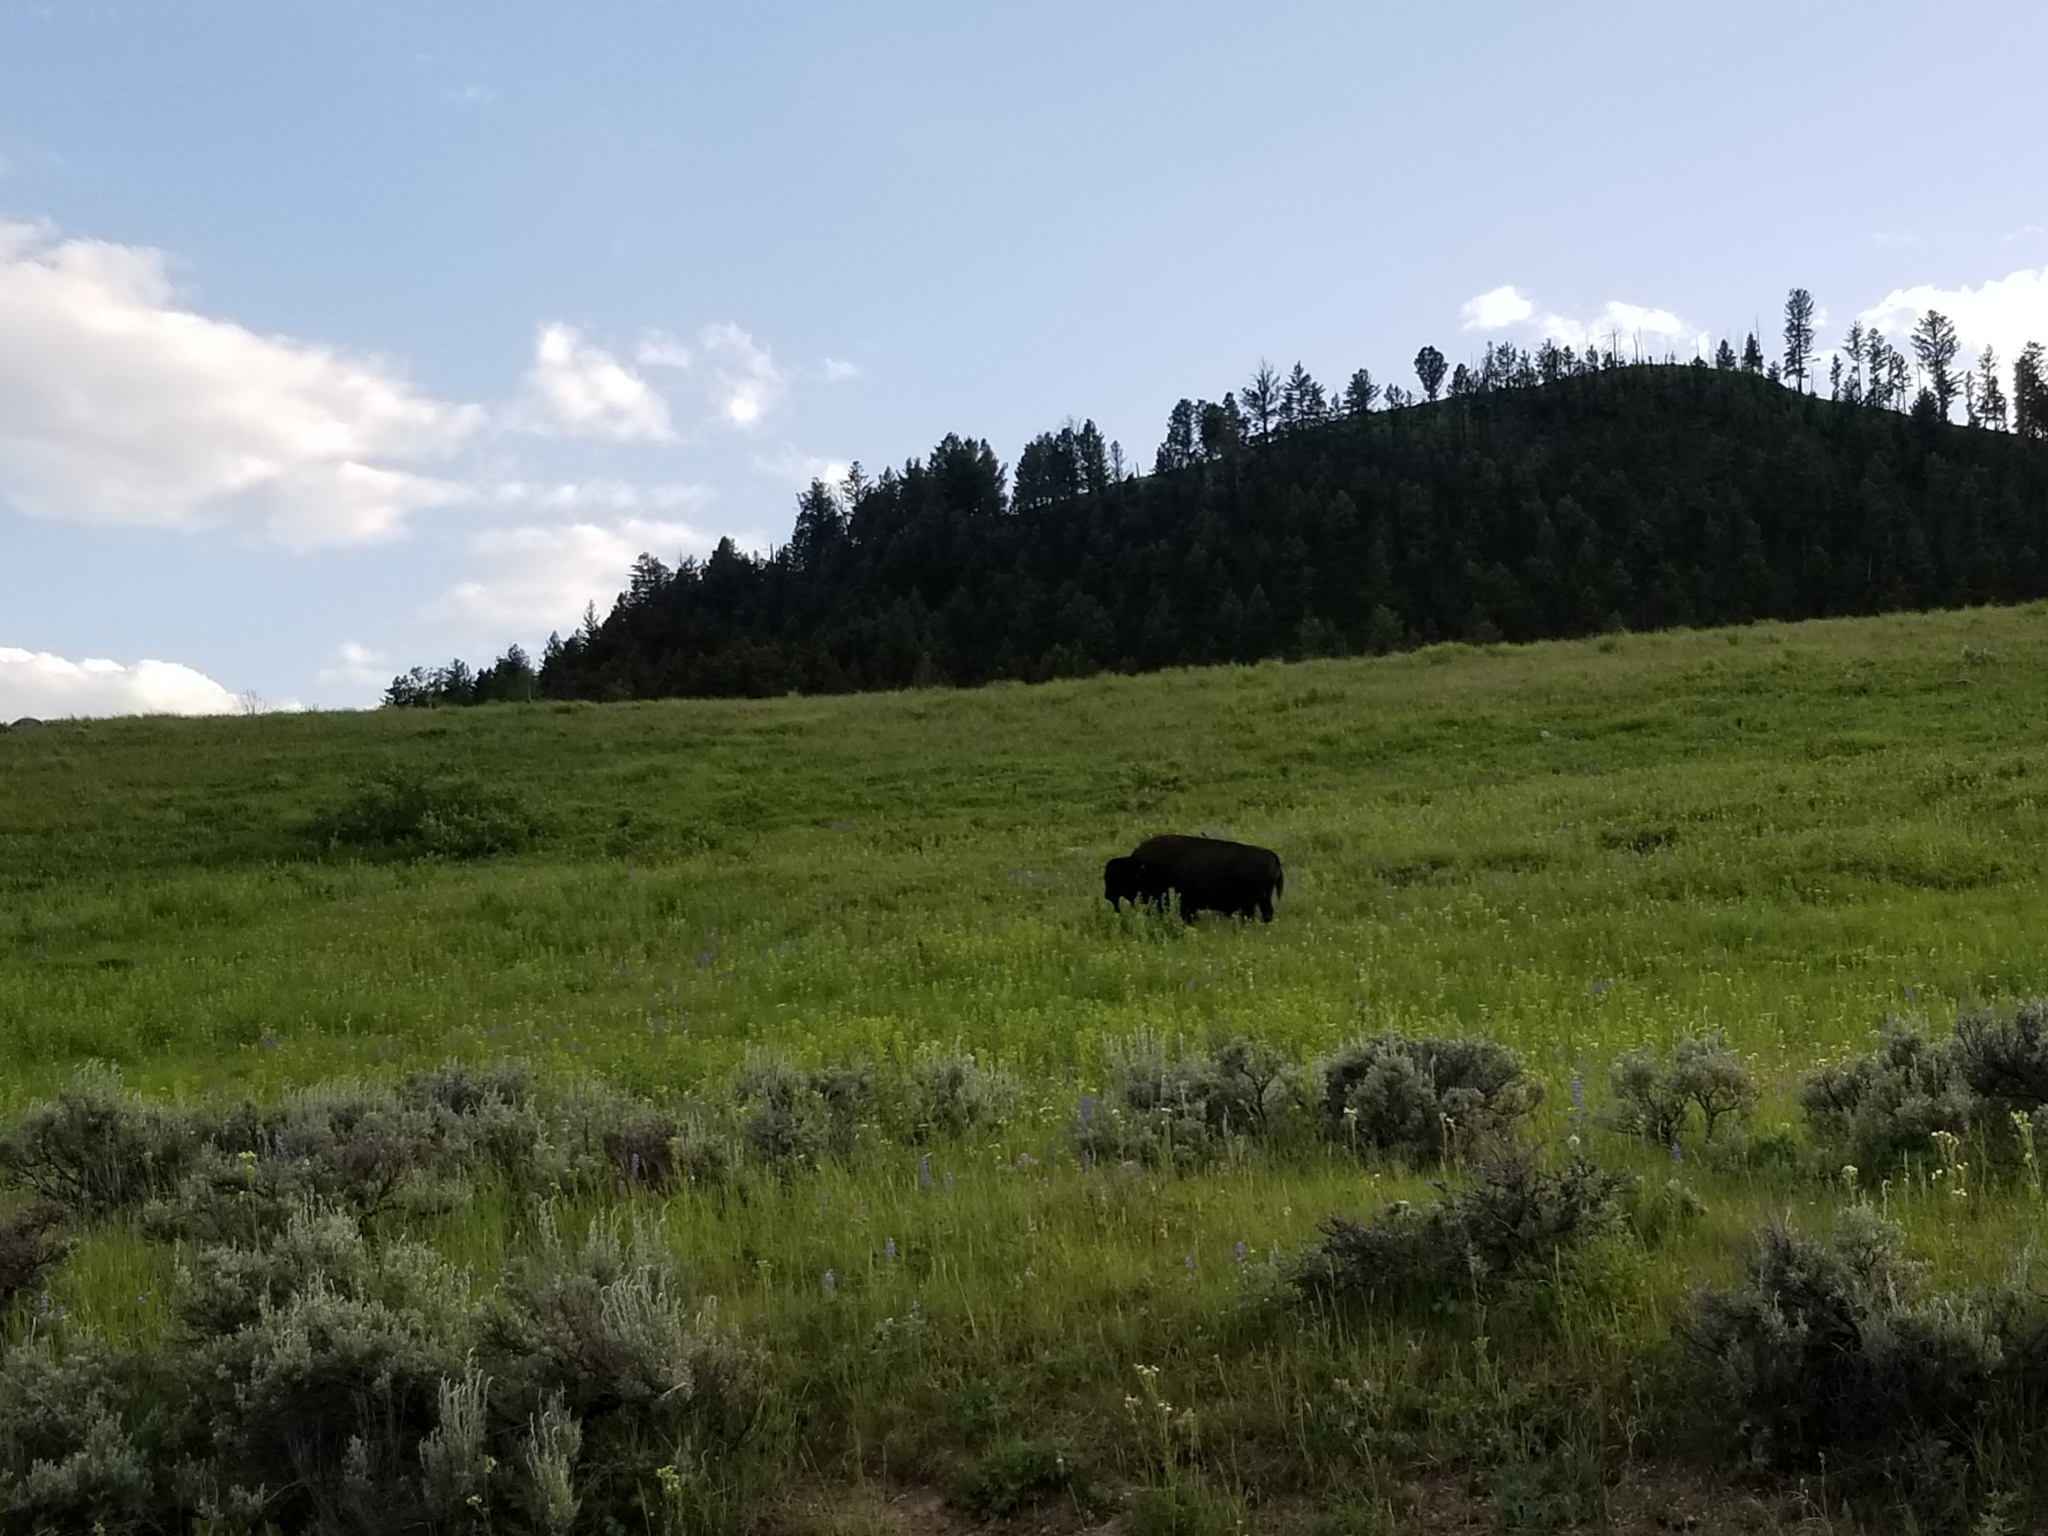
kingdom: Animalia
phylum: Chordata
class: Mammalia
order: Artiodactyla
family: Bovidae
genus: Bison
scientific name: Bison bison
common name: American bison
